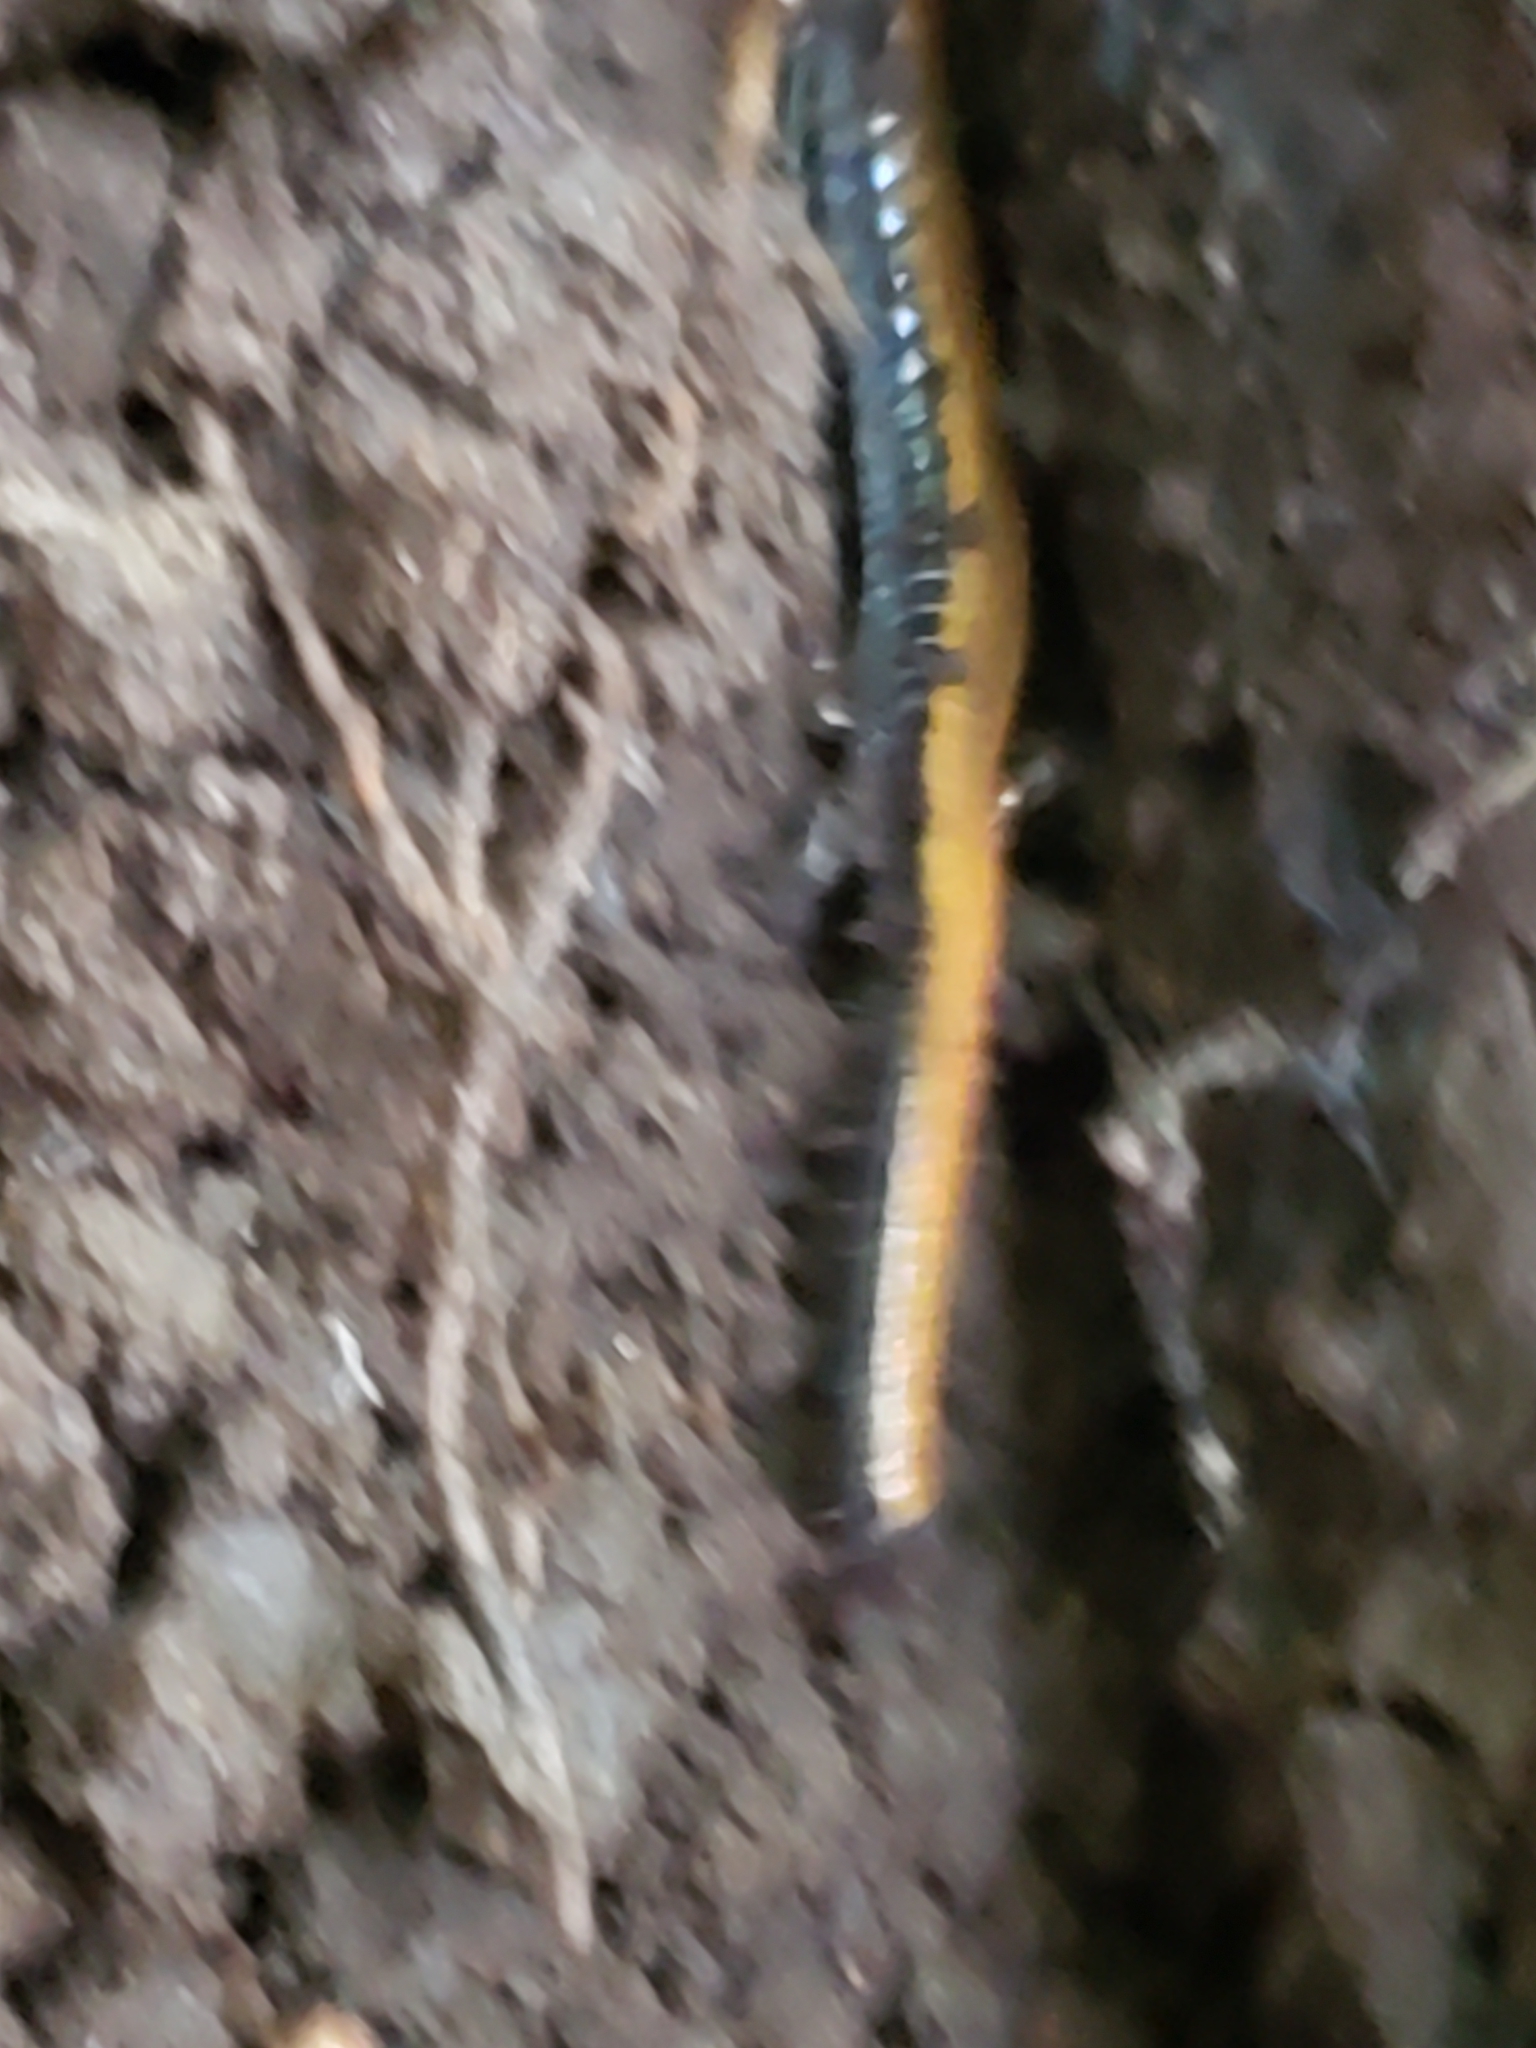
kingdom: Animalia
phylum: Chordata
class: Amphibia
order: Caudata
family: Plethodontidae
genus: Plethodon
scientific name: Plethodon cinereus
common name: Redback salamander
